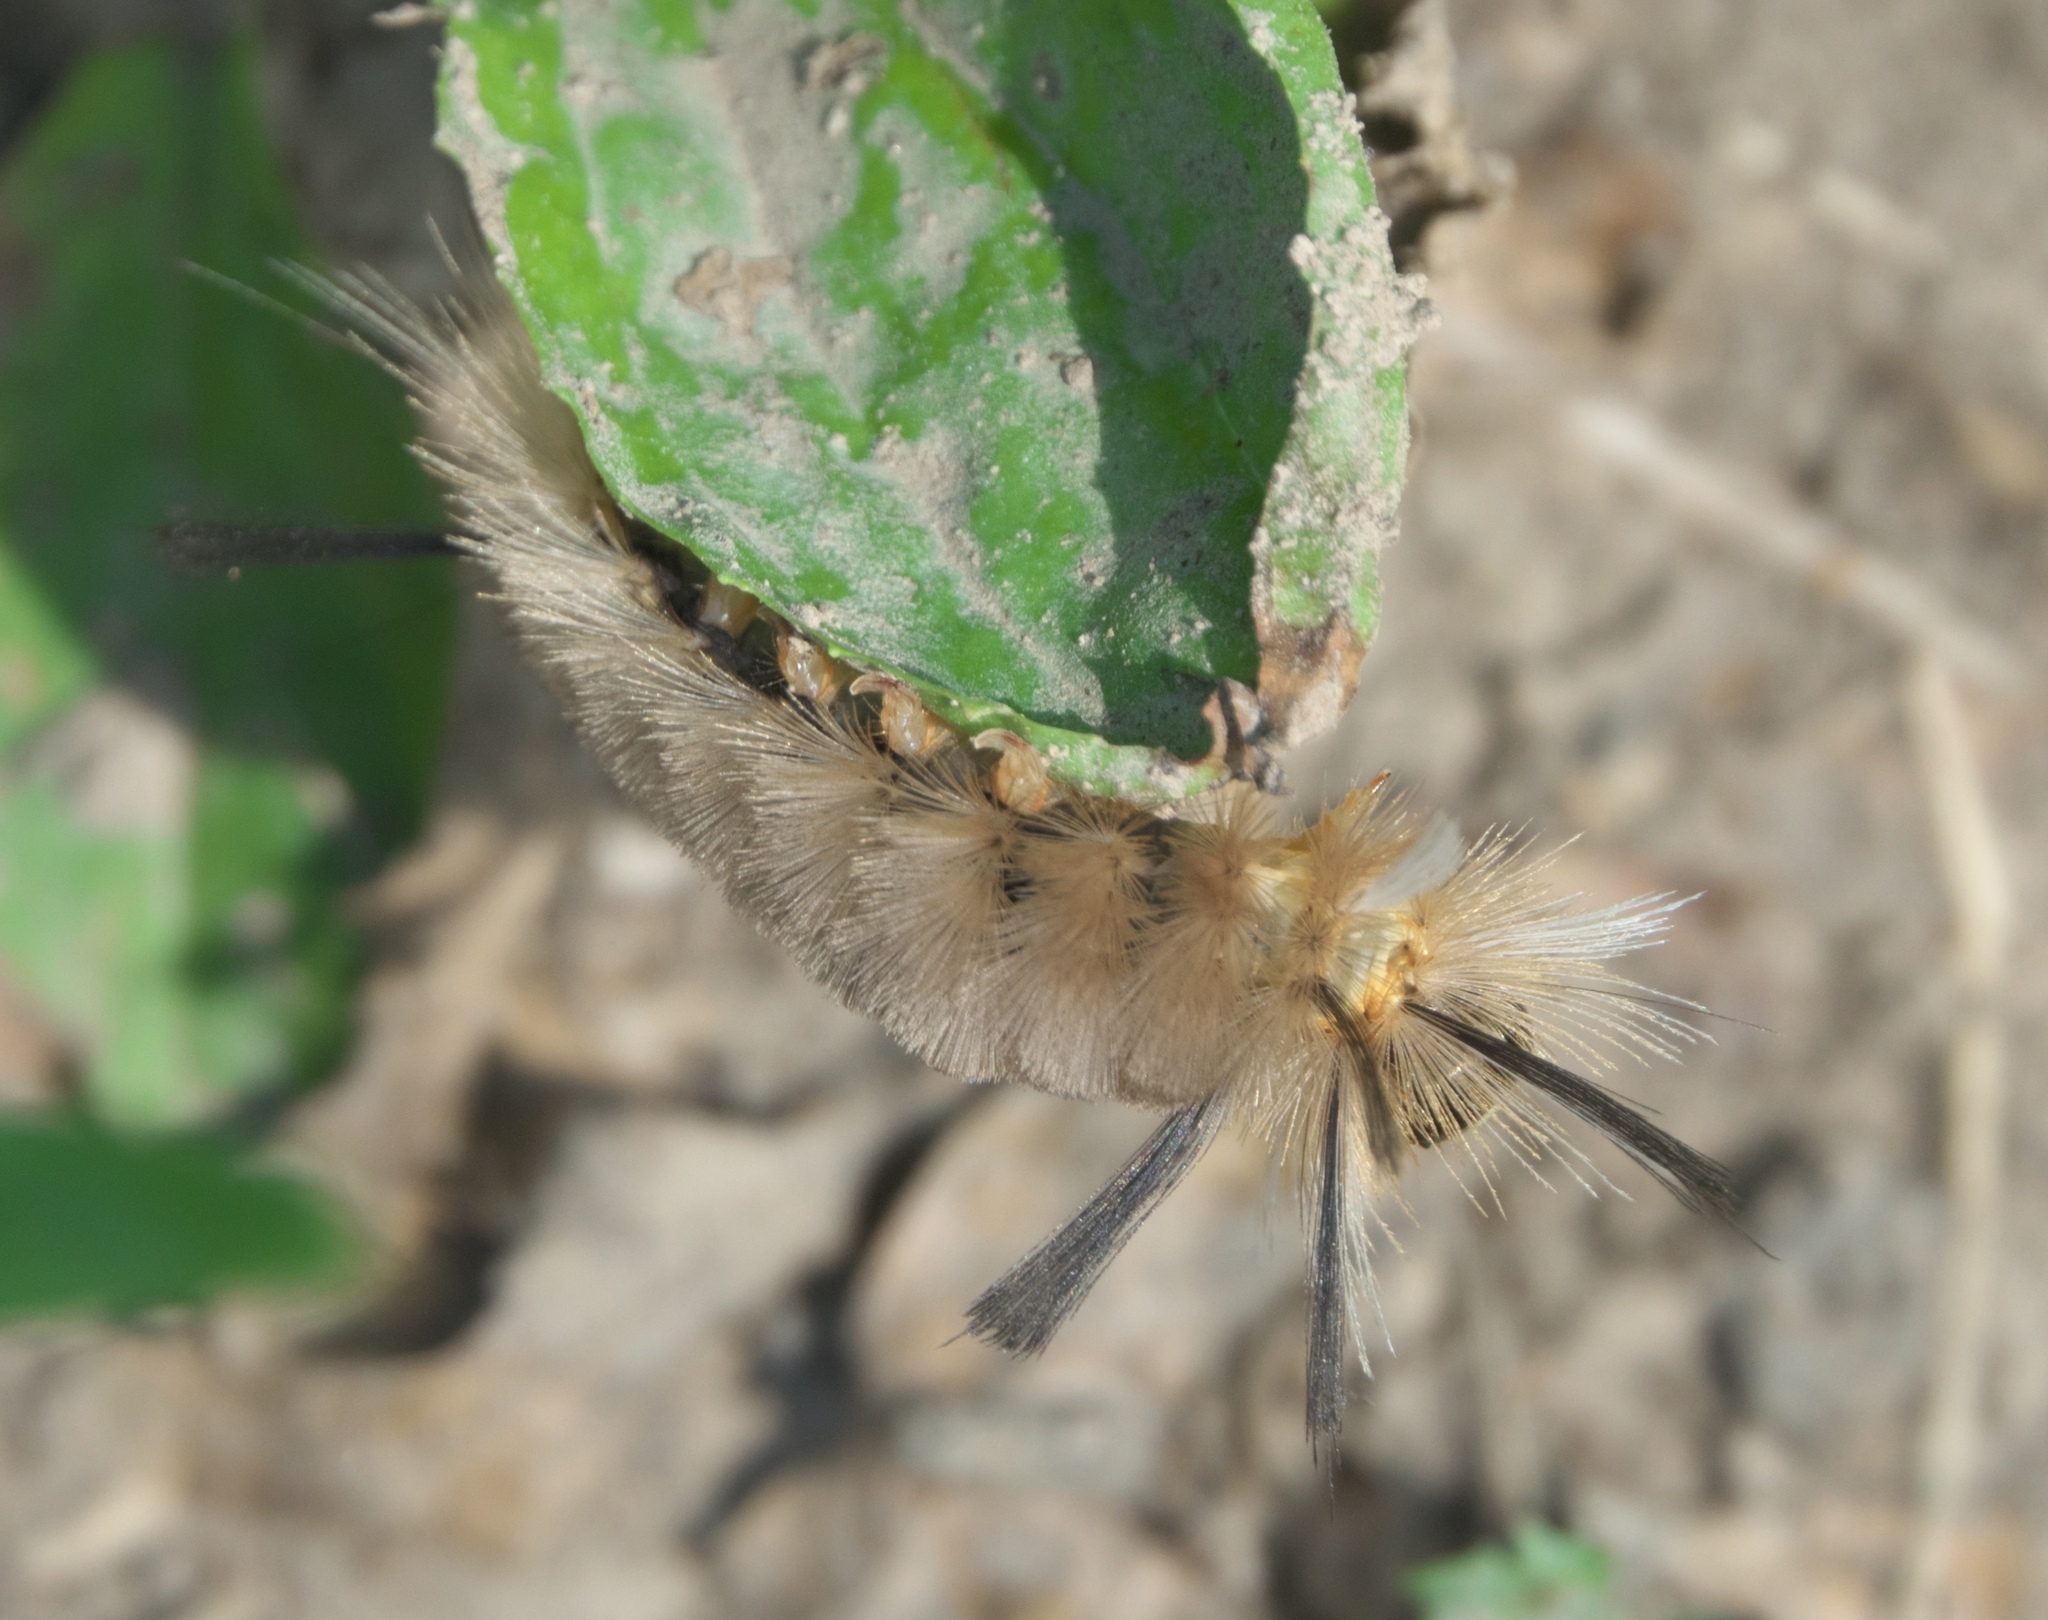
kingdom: Animalia
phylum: Arthropoda
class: Insecta
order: Lepidoptera
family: Erebidae
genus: Halysidota
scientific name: Halysidota tessellaris
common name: Banded tussock moth
